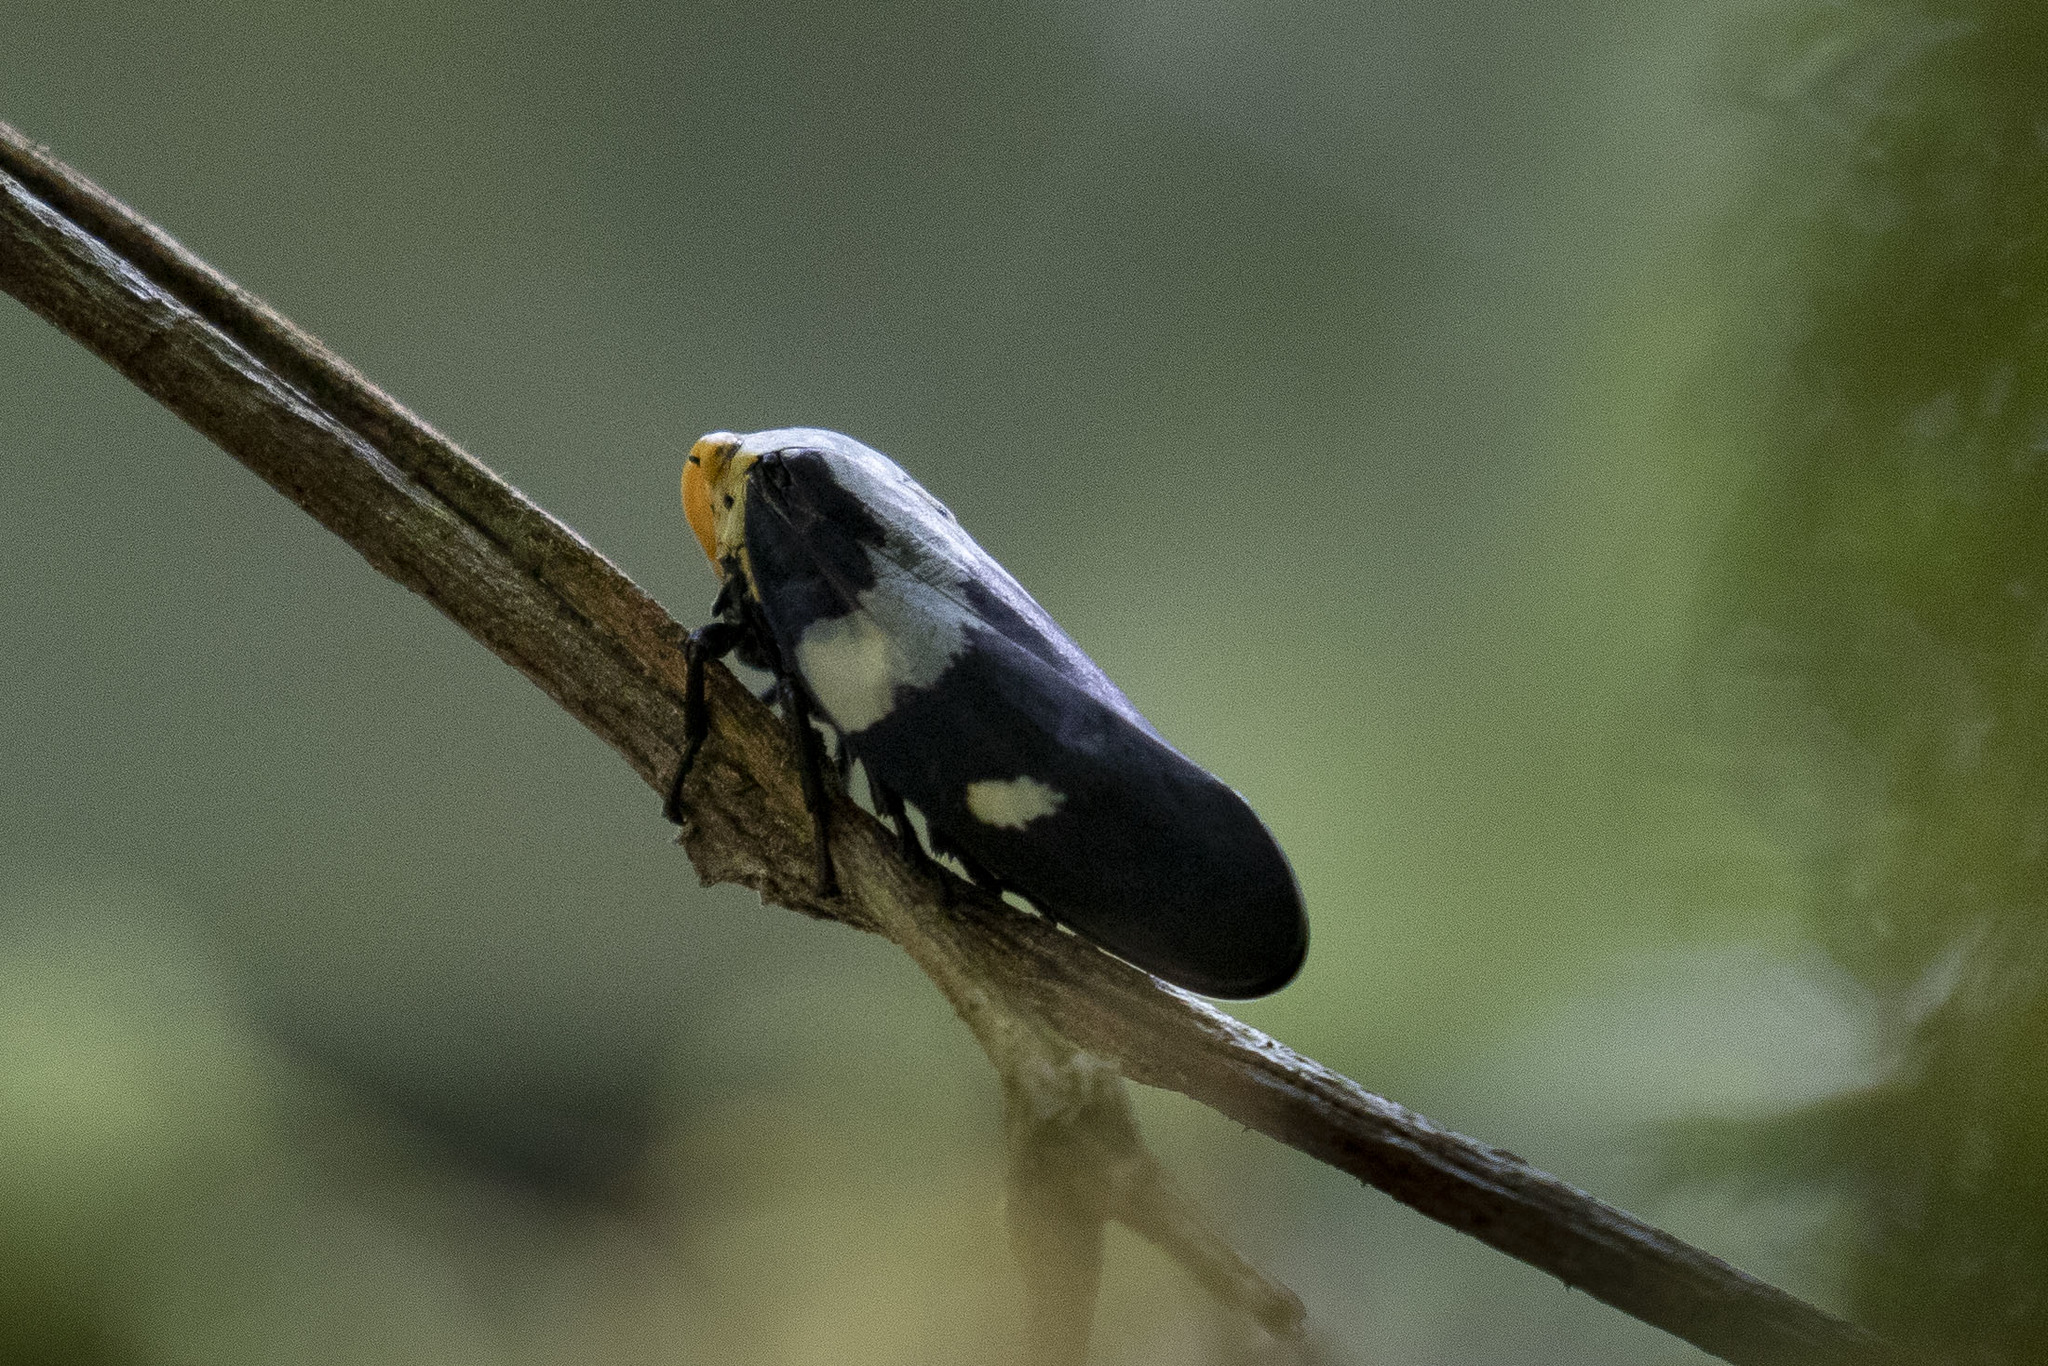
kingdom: Animalia
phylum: Arthropoda
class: Insecta
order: Hemiptera
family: Aphrophoridae
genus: Ptyelus
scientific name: Ptyelus goudoti
